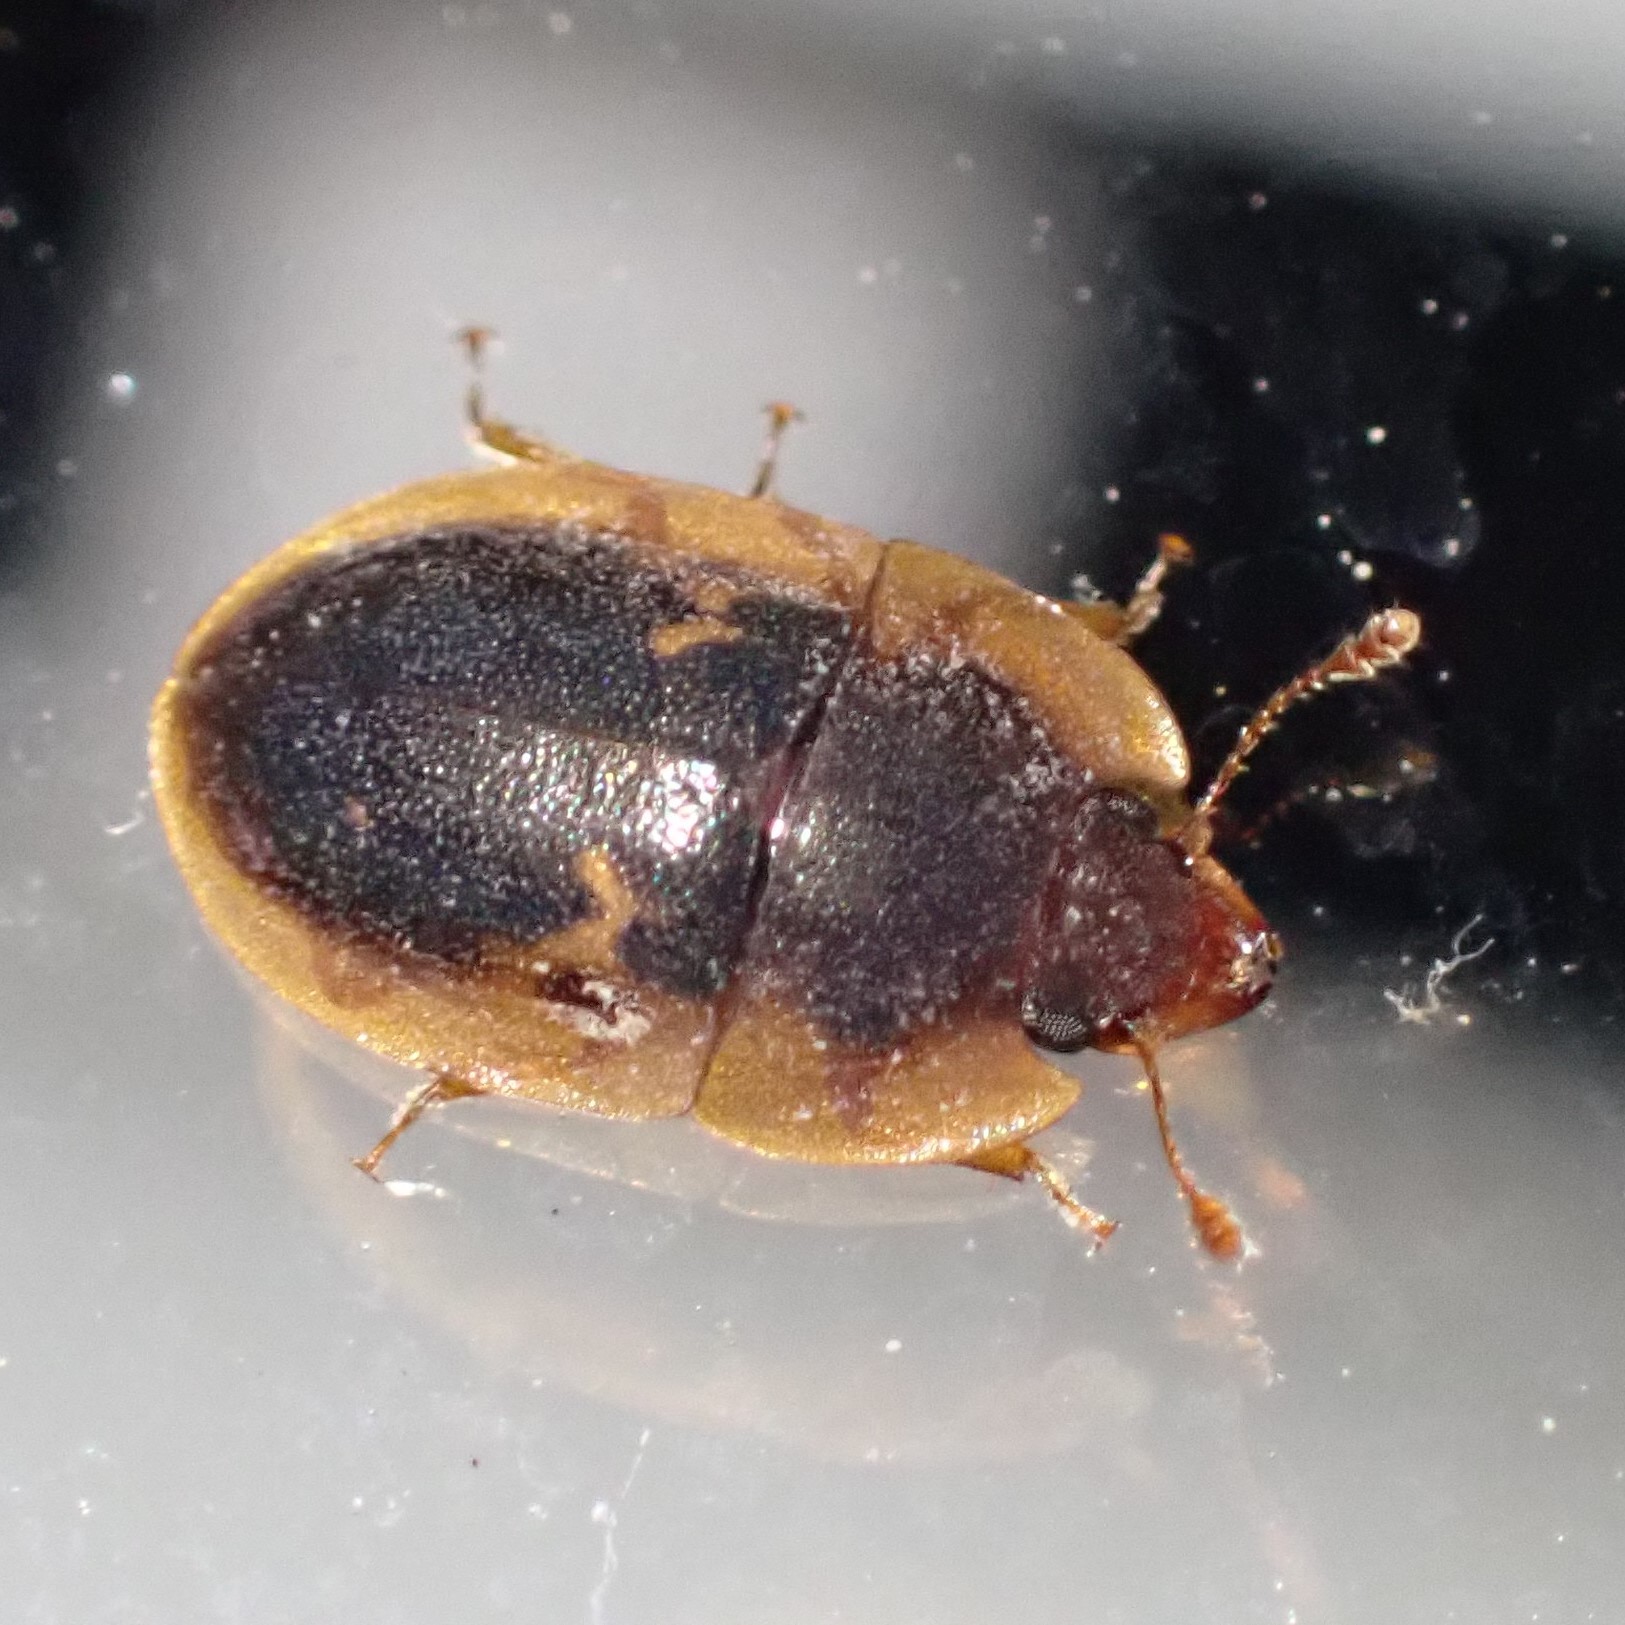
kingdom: Animalia
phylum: Arthropoda
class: Insecta
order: Coleoptera
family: Nitidulidae
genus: Prometopia
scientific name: Prometopia sexmaculata
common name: Six-spotted sap-feeding beetle
